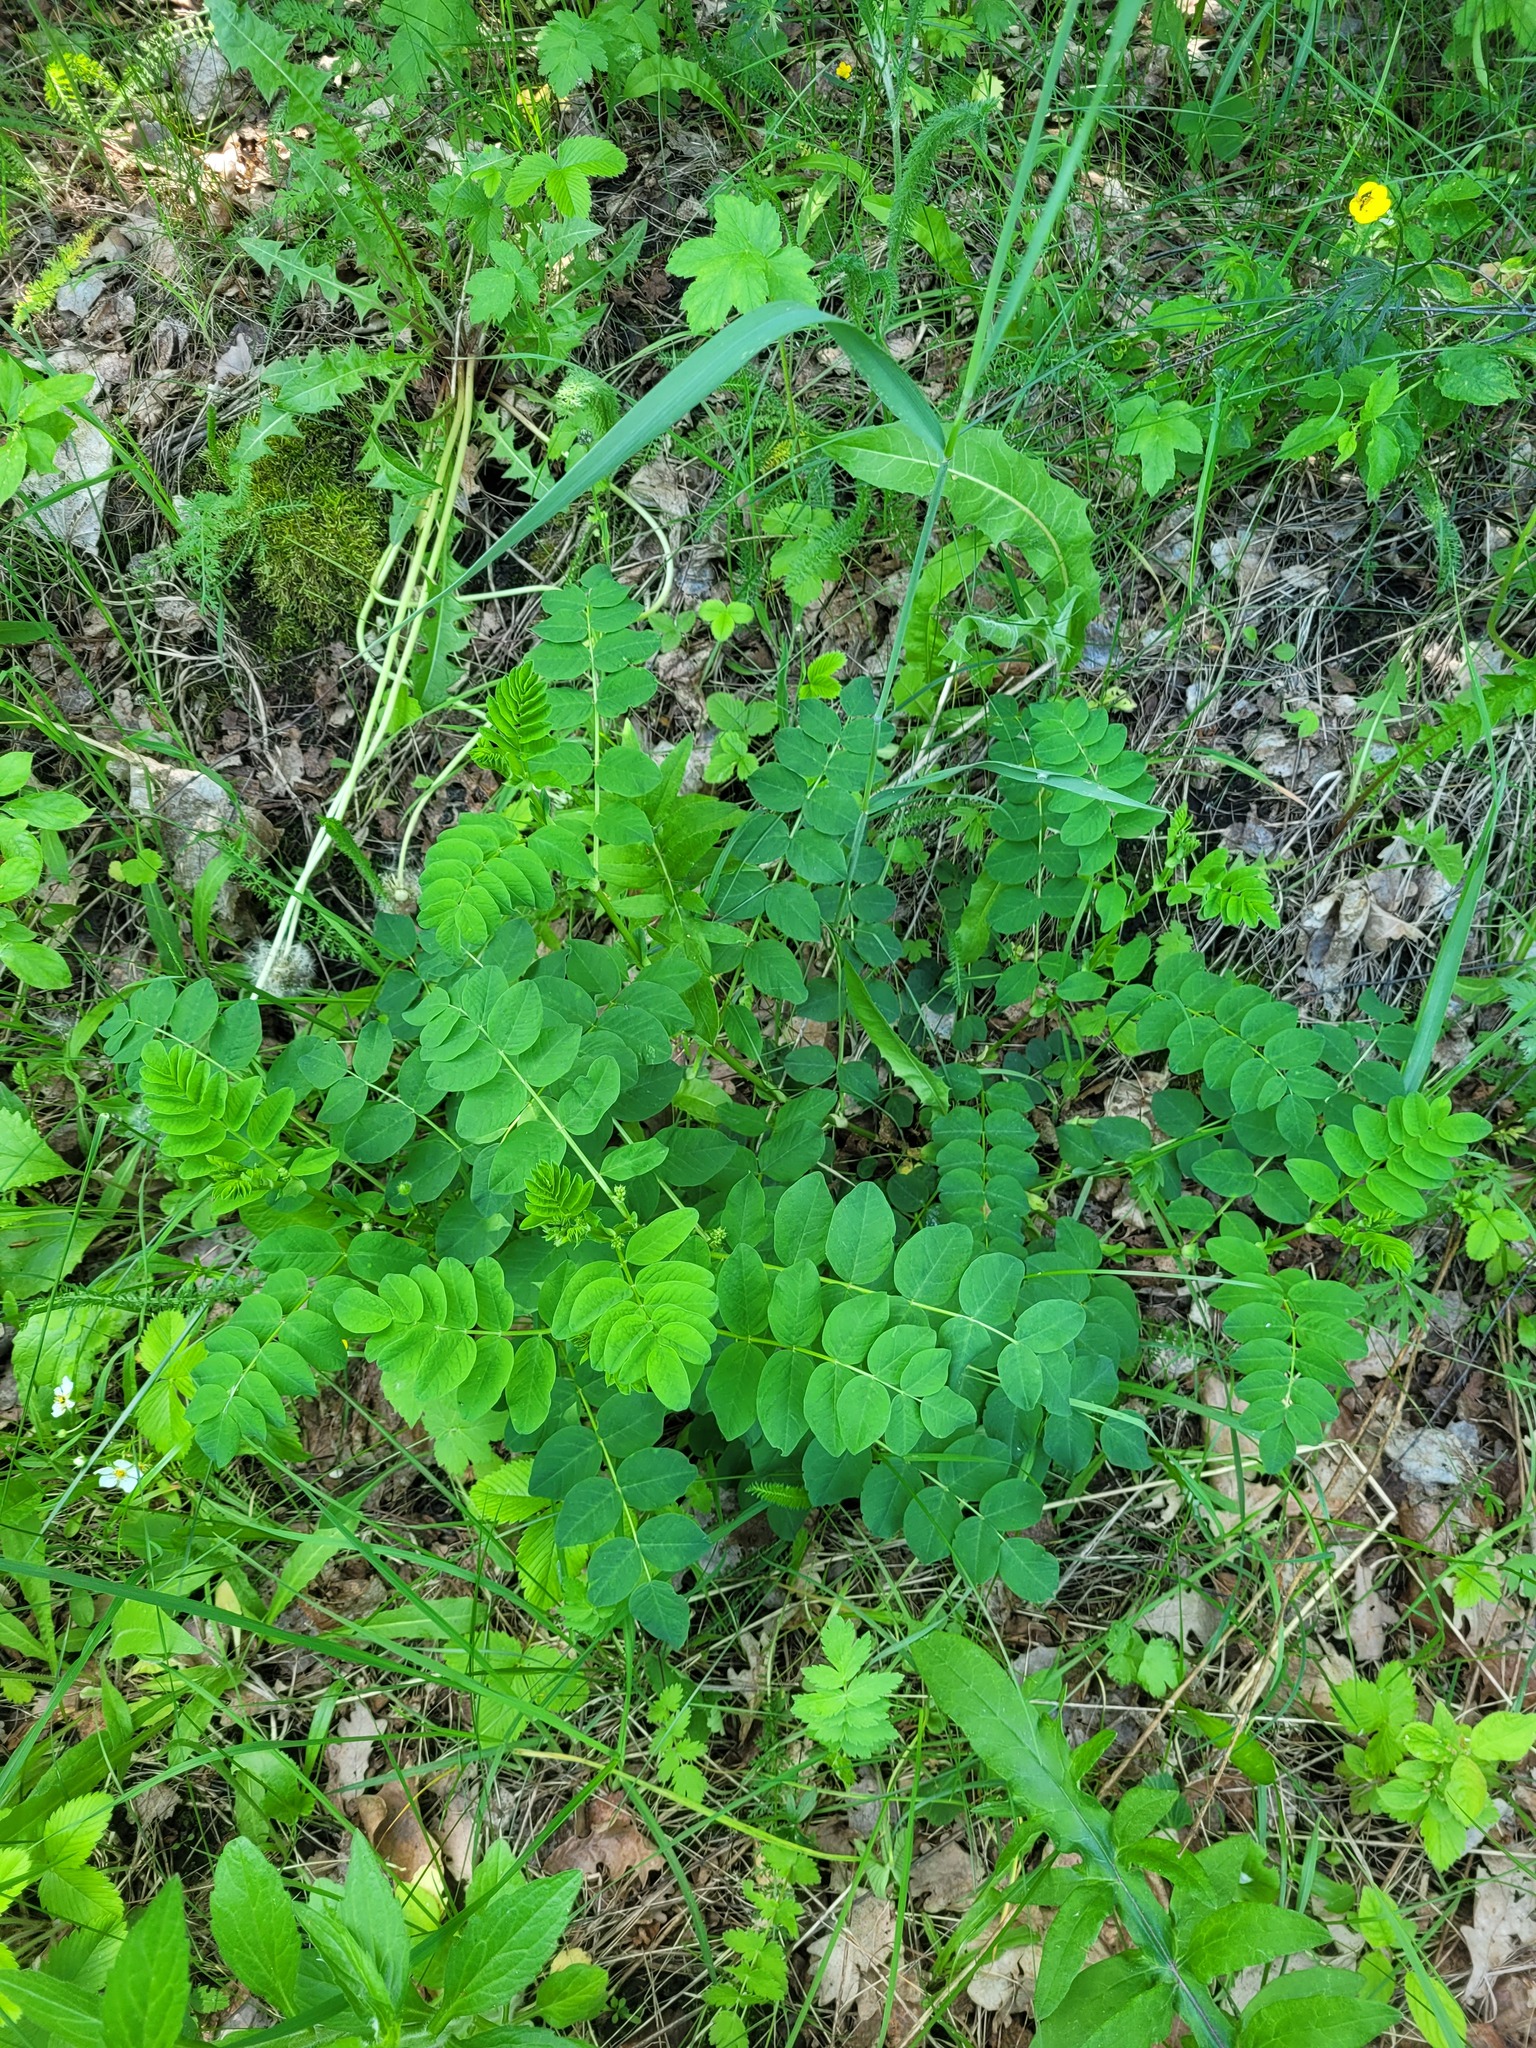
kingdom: Plantae
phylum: Tracheophyta
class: Magnoliopsida
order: Fabales
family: Fabaceae
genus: Astragalus
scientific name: Astragalus glycyphyllos
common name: Wild liquorice
